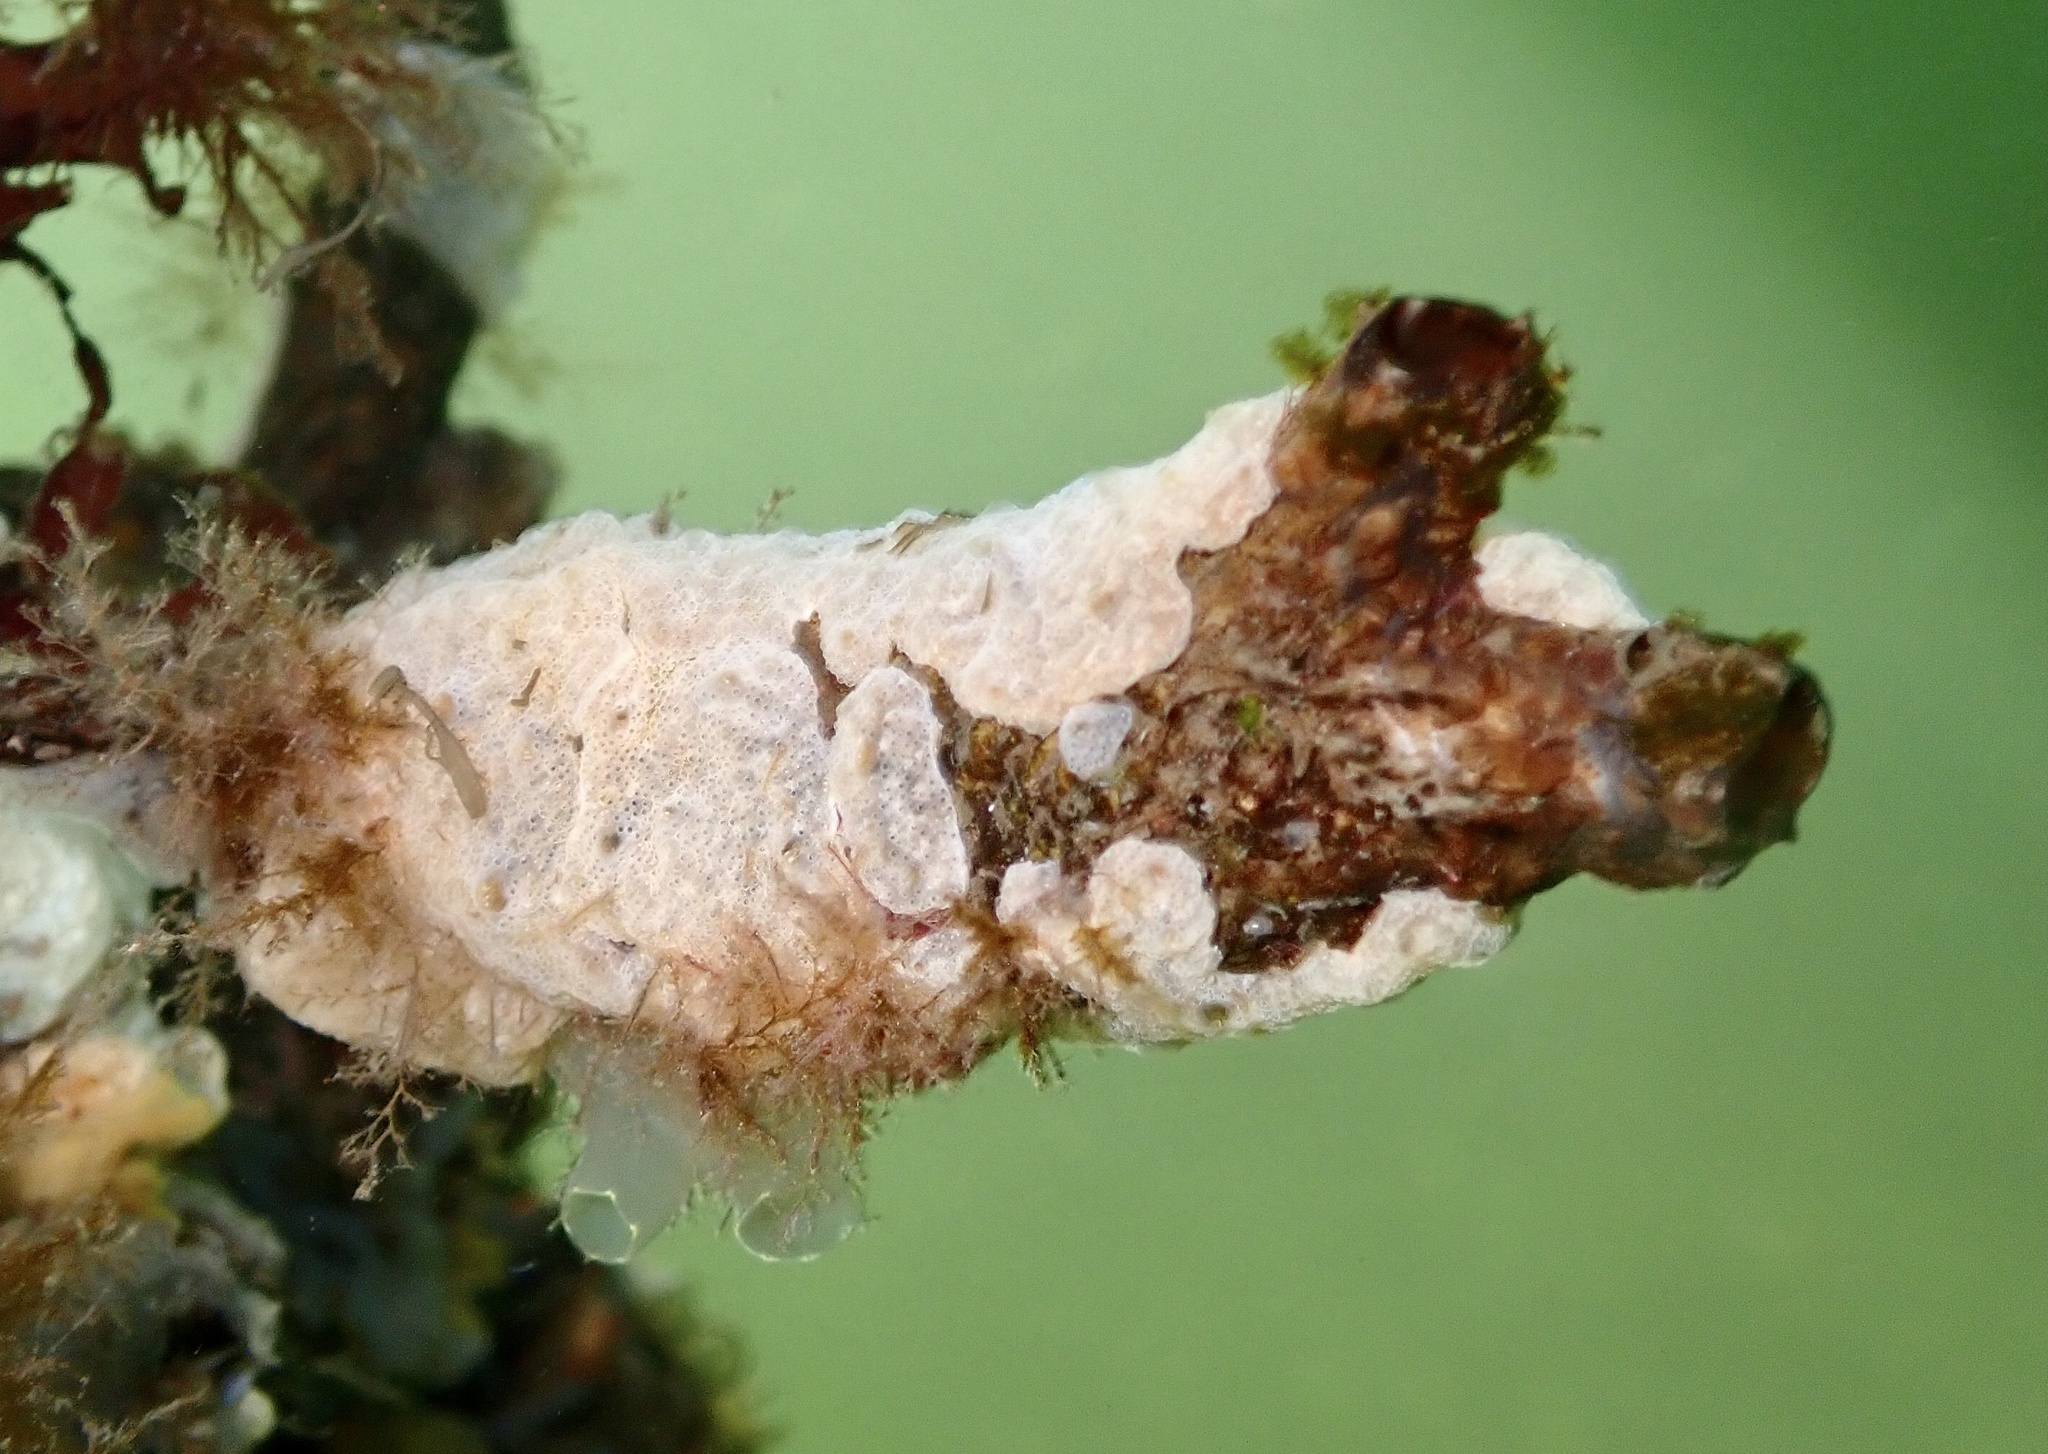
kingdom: Animalia
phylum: Chordata
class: Ascidiacea
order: Stolidobranchia
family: Styelidae
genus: Styela
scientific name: Styela clava
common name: Leathery sea squirt
